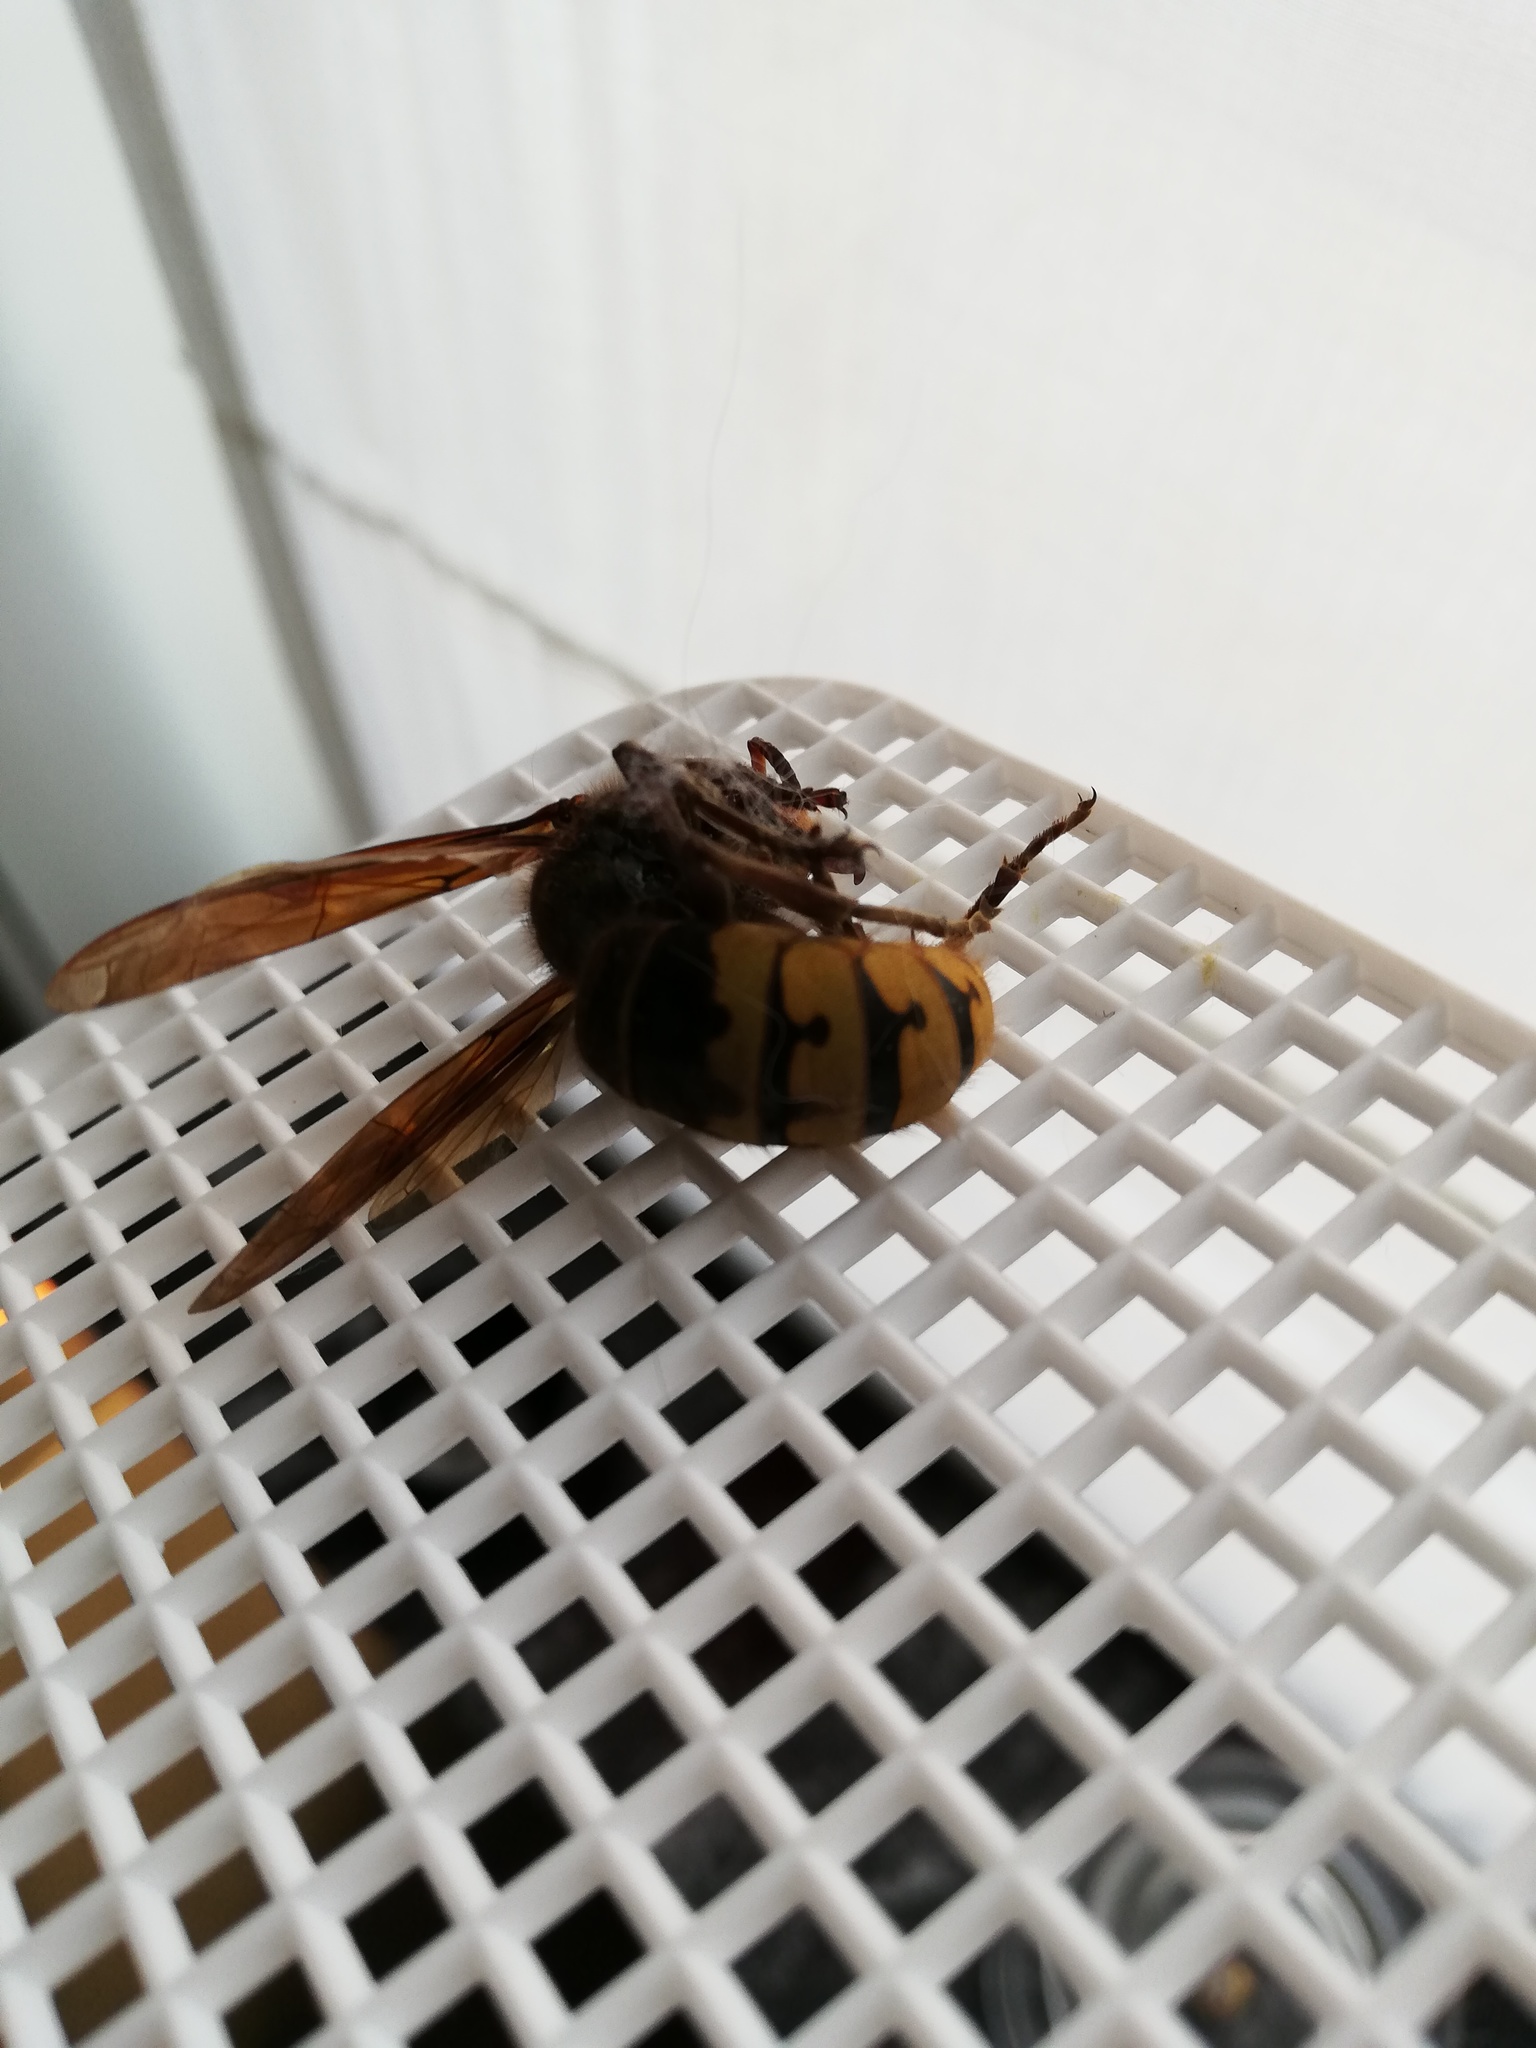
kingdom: Animalia
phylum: Arthropoda
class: Insecta
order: Hymenoptera
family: Vespidae
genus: Vespa
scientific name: Vespa crabro
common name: Hornet
